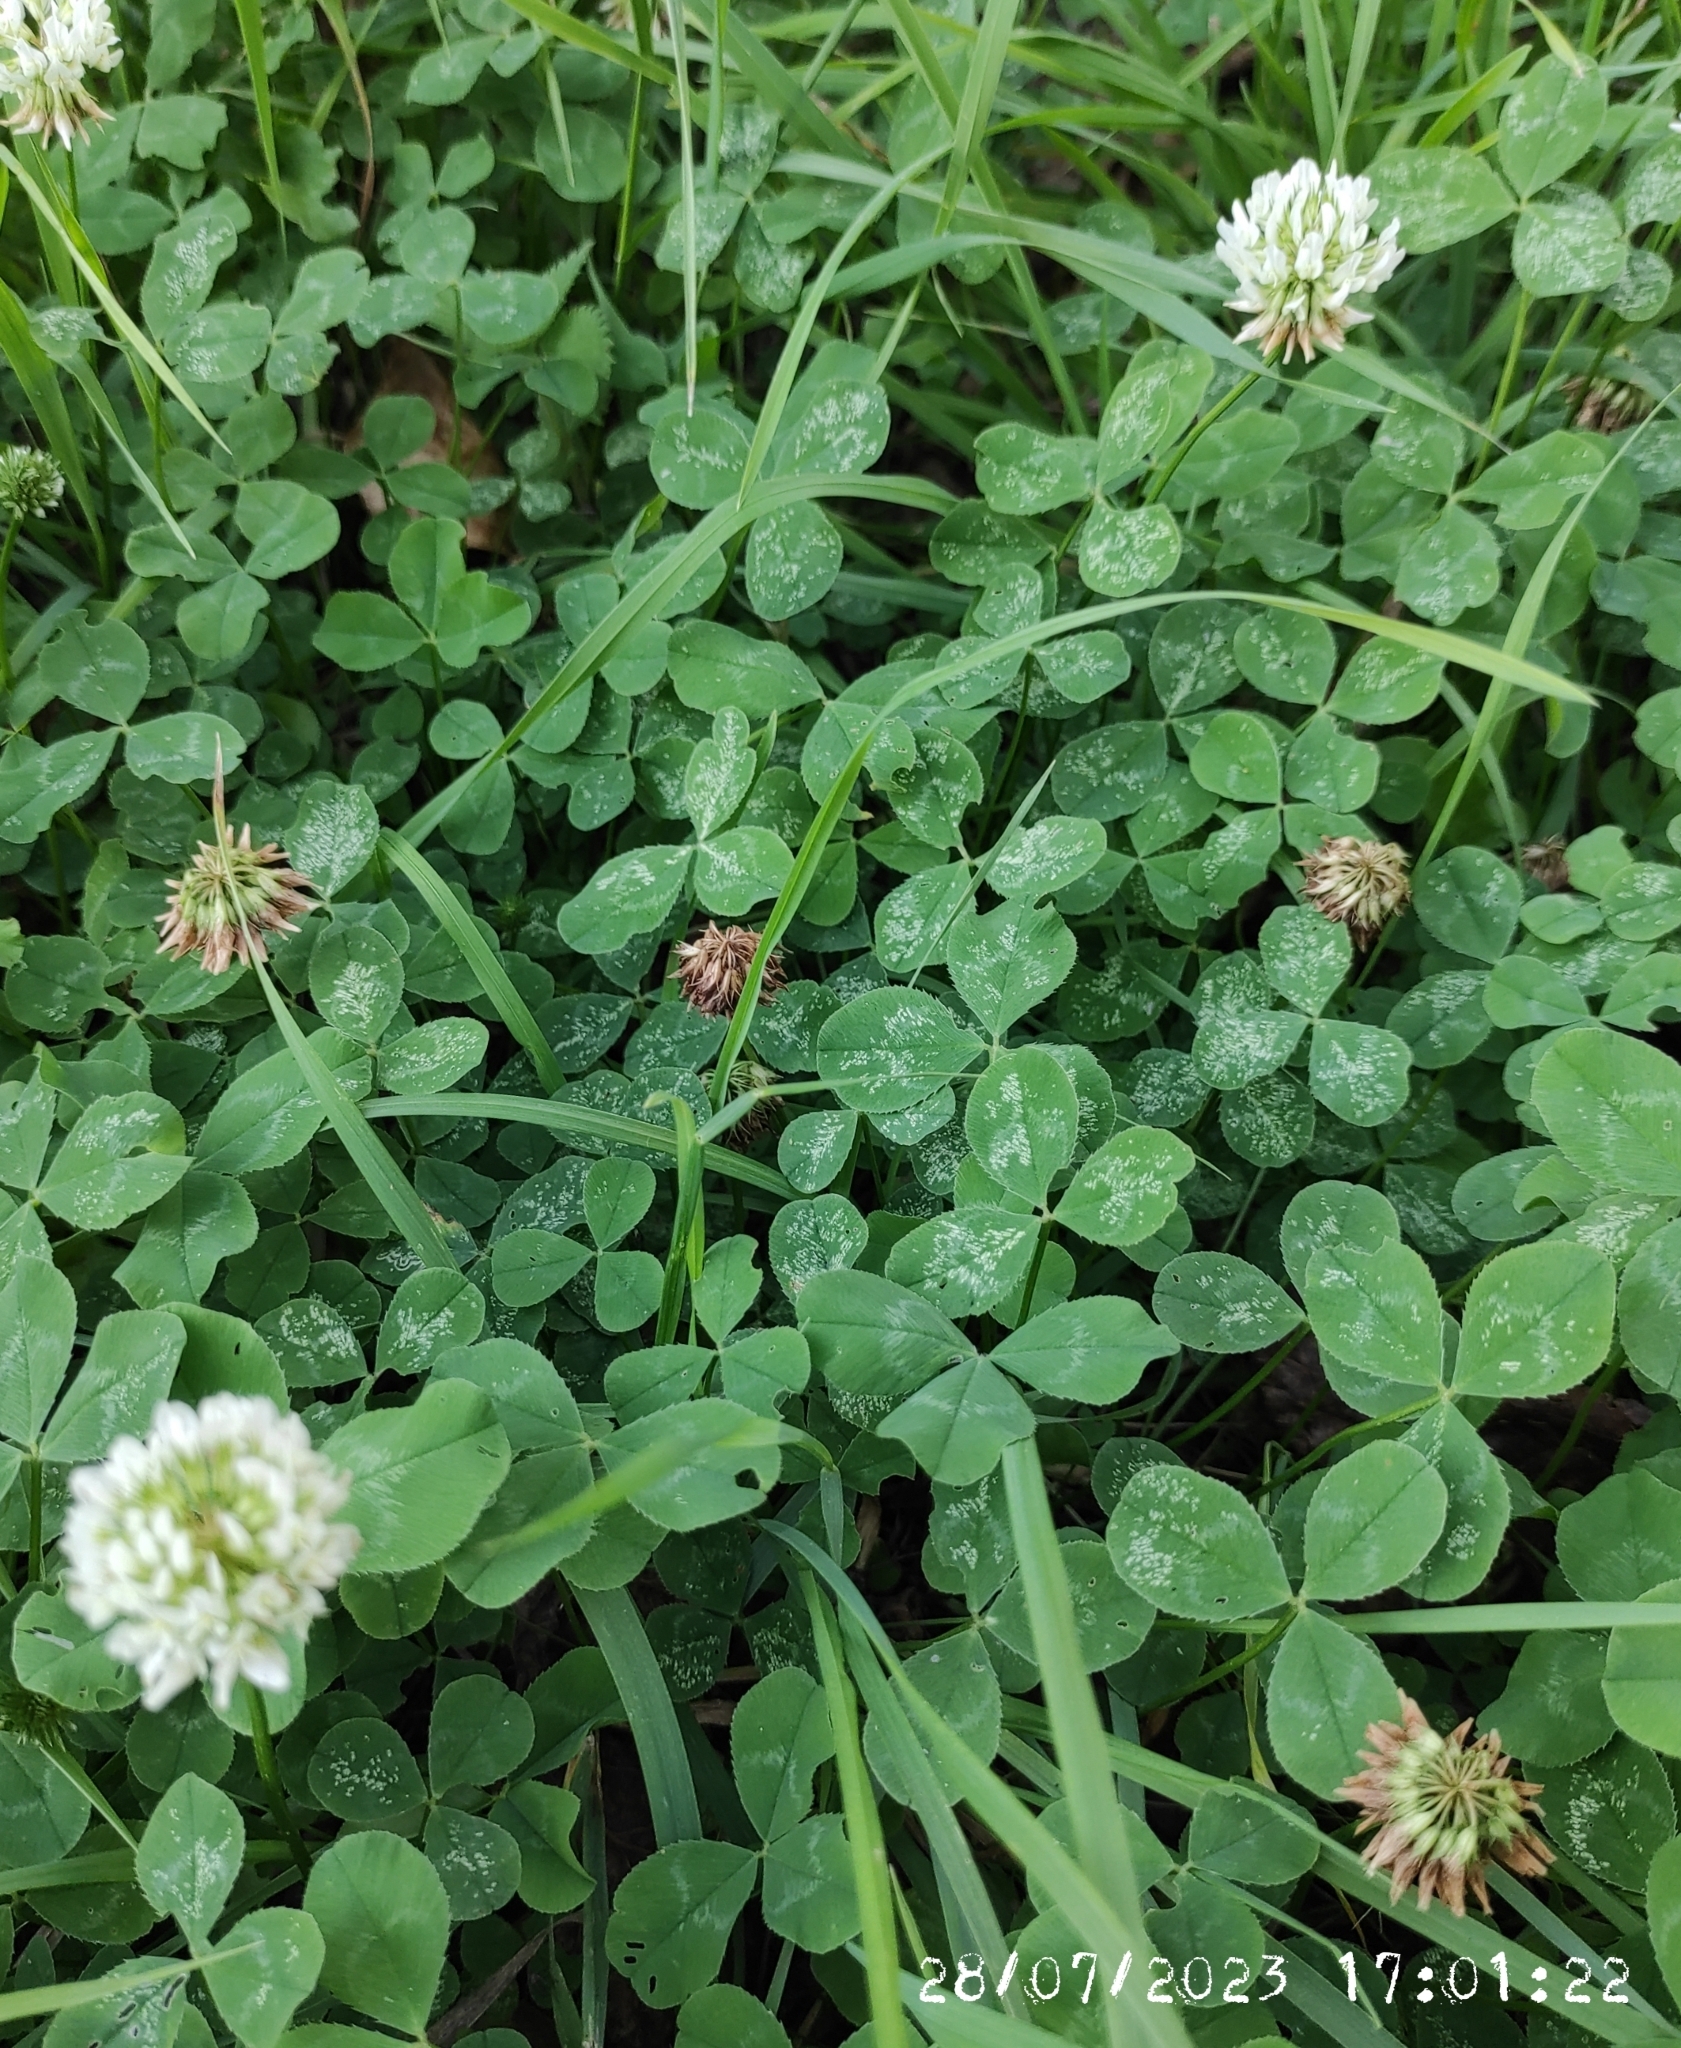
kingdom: Plantae
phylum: Tracheophyta
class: Magnoliopsida
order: Fabales
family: Fabaceae
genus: Trifolium
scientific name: Trifolium repens
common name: White clover
